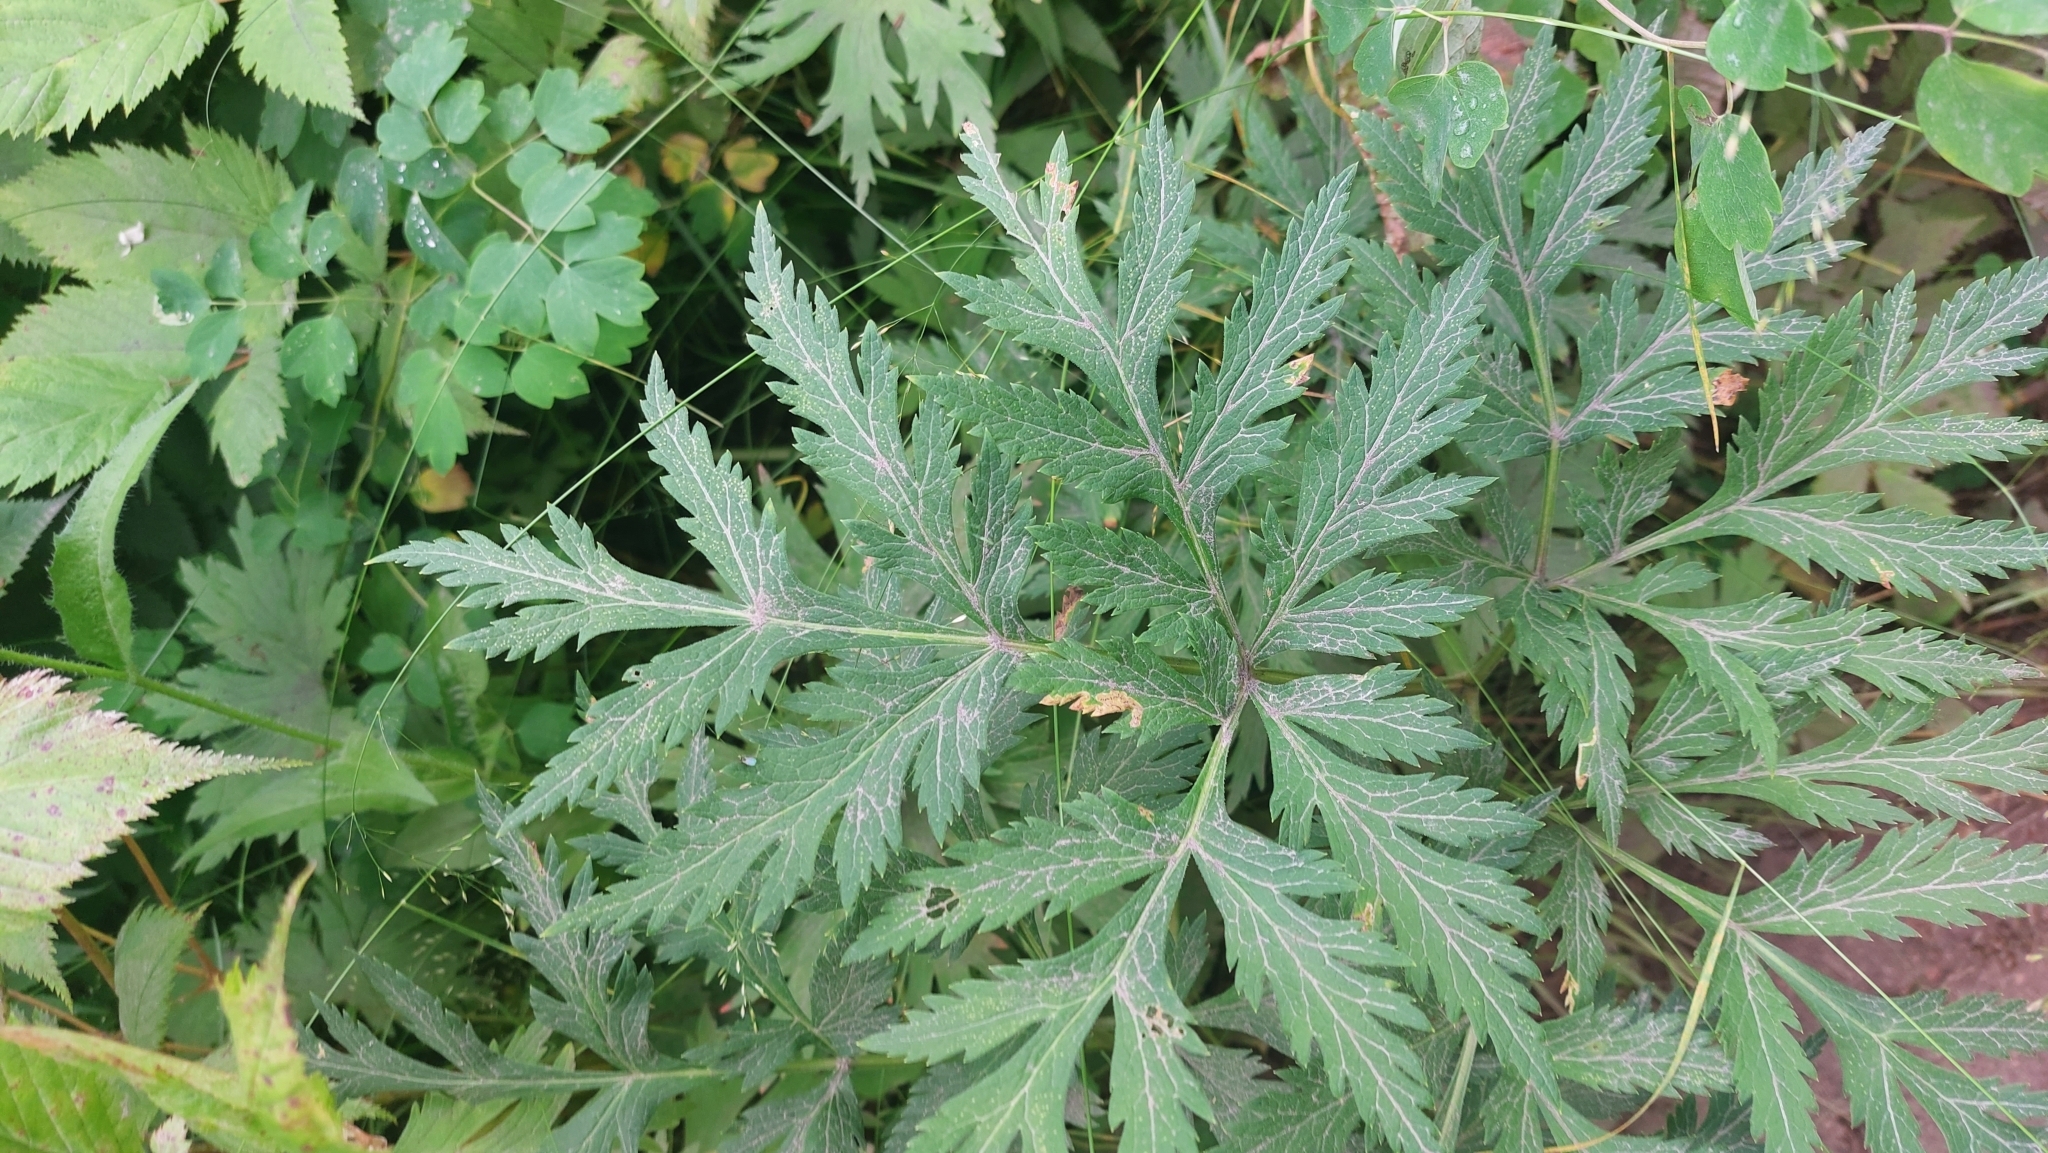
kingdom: Plantae
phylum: Tracheophyta
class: Magnoliopsida
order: Apiales
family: Apiaceae
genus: Pleurospermum
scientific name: Pleurospermum uralense
